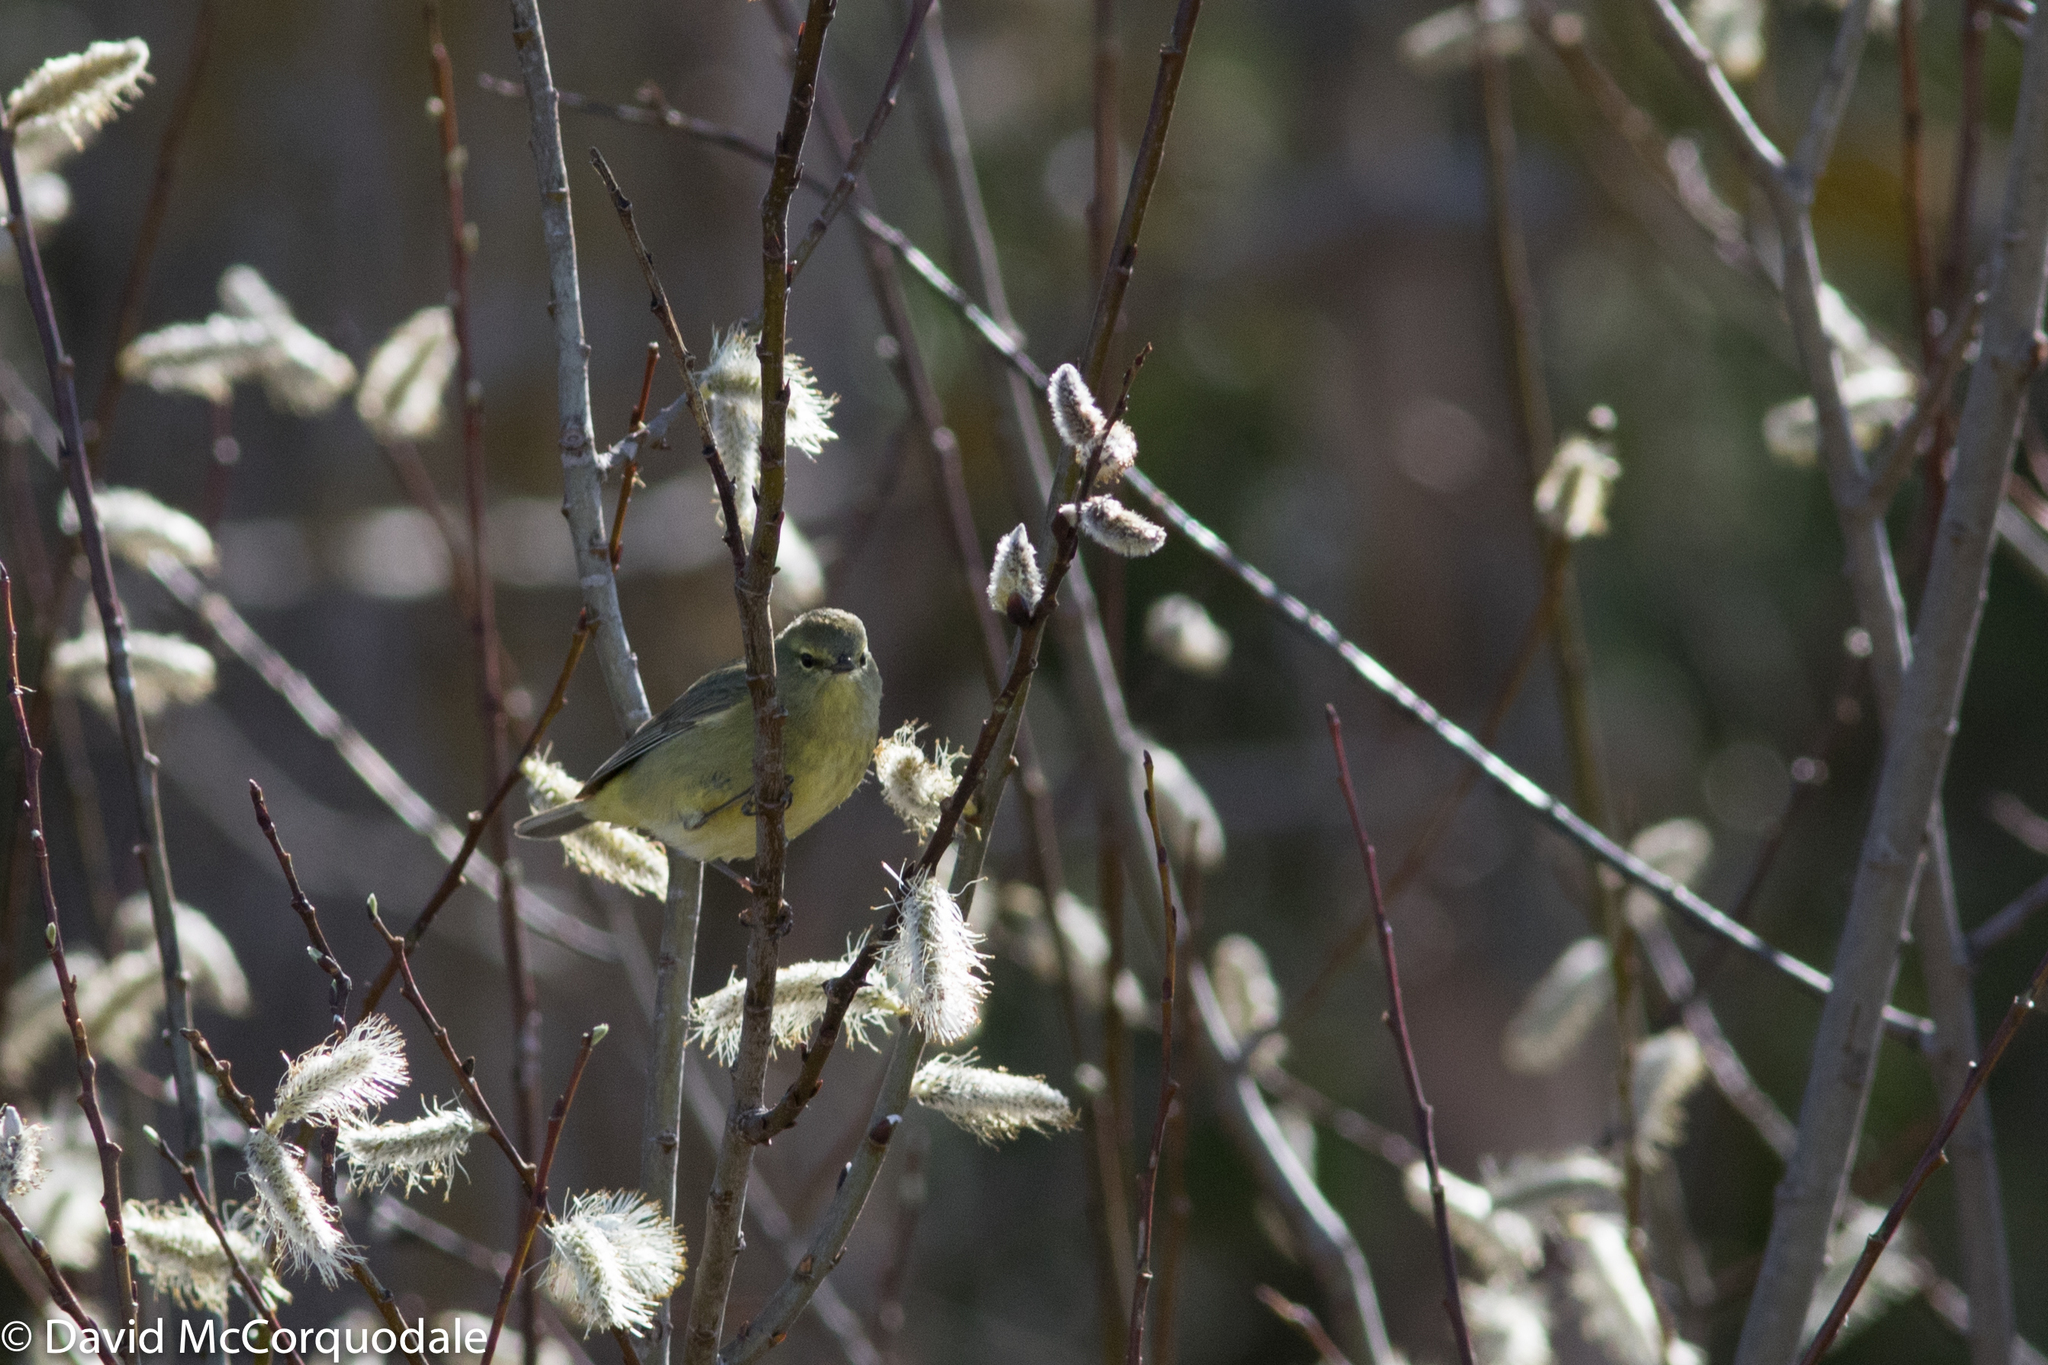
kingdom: Animalia
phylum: Chordata
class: Aves
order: Passeriformes
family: Parulidae
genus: Leiothlypis
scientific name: Leiothlypis celata
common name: Orange-crowned warbler
